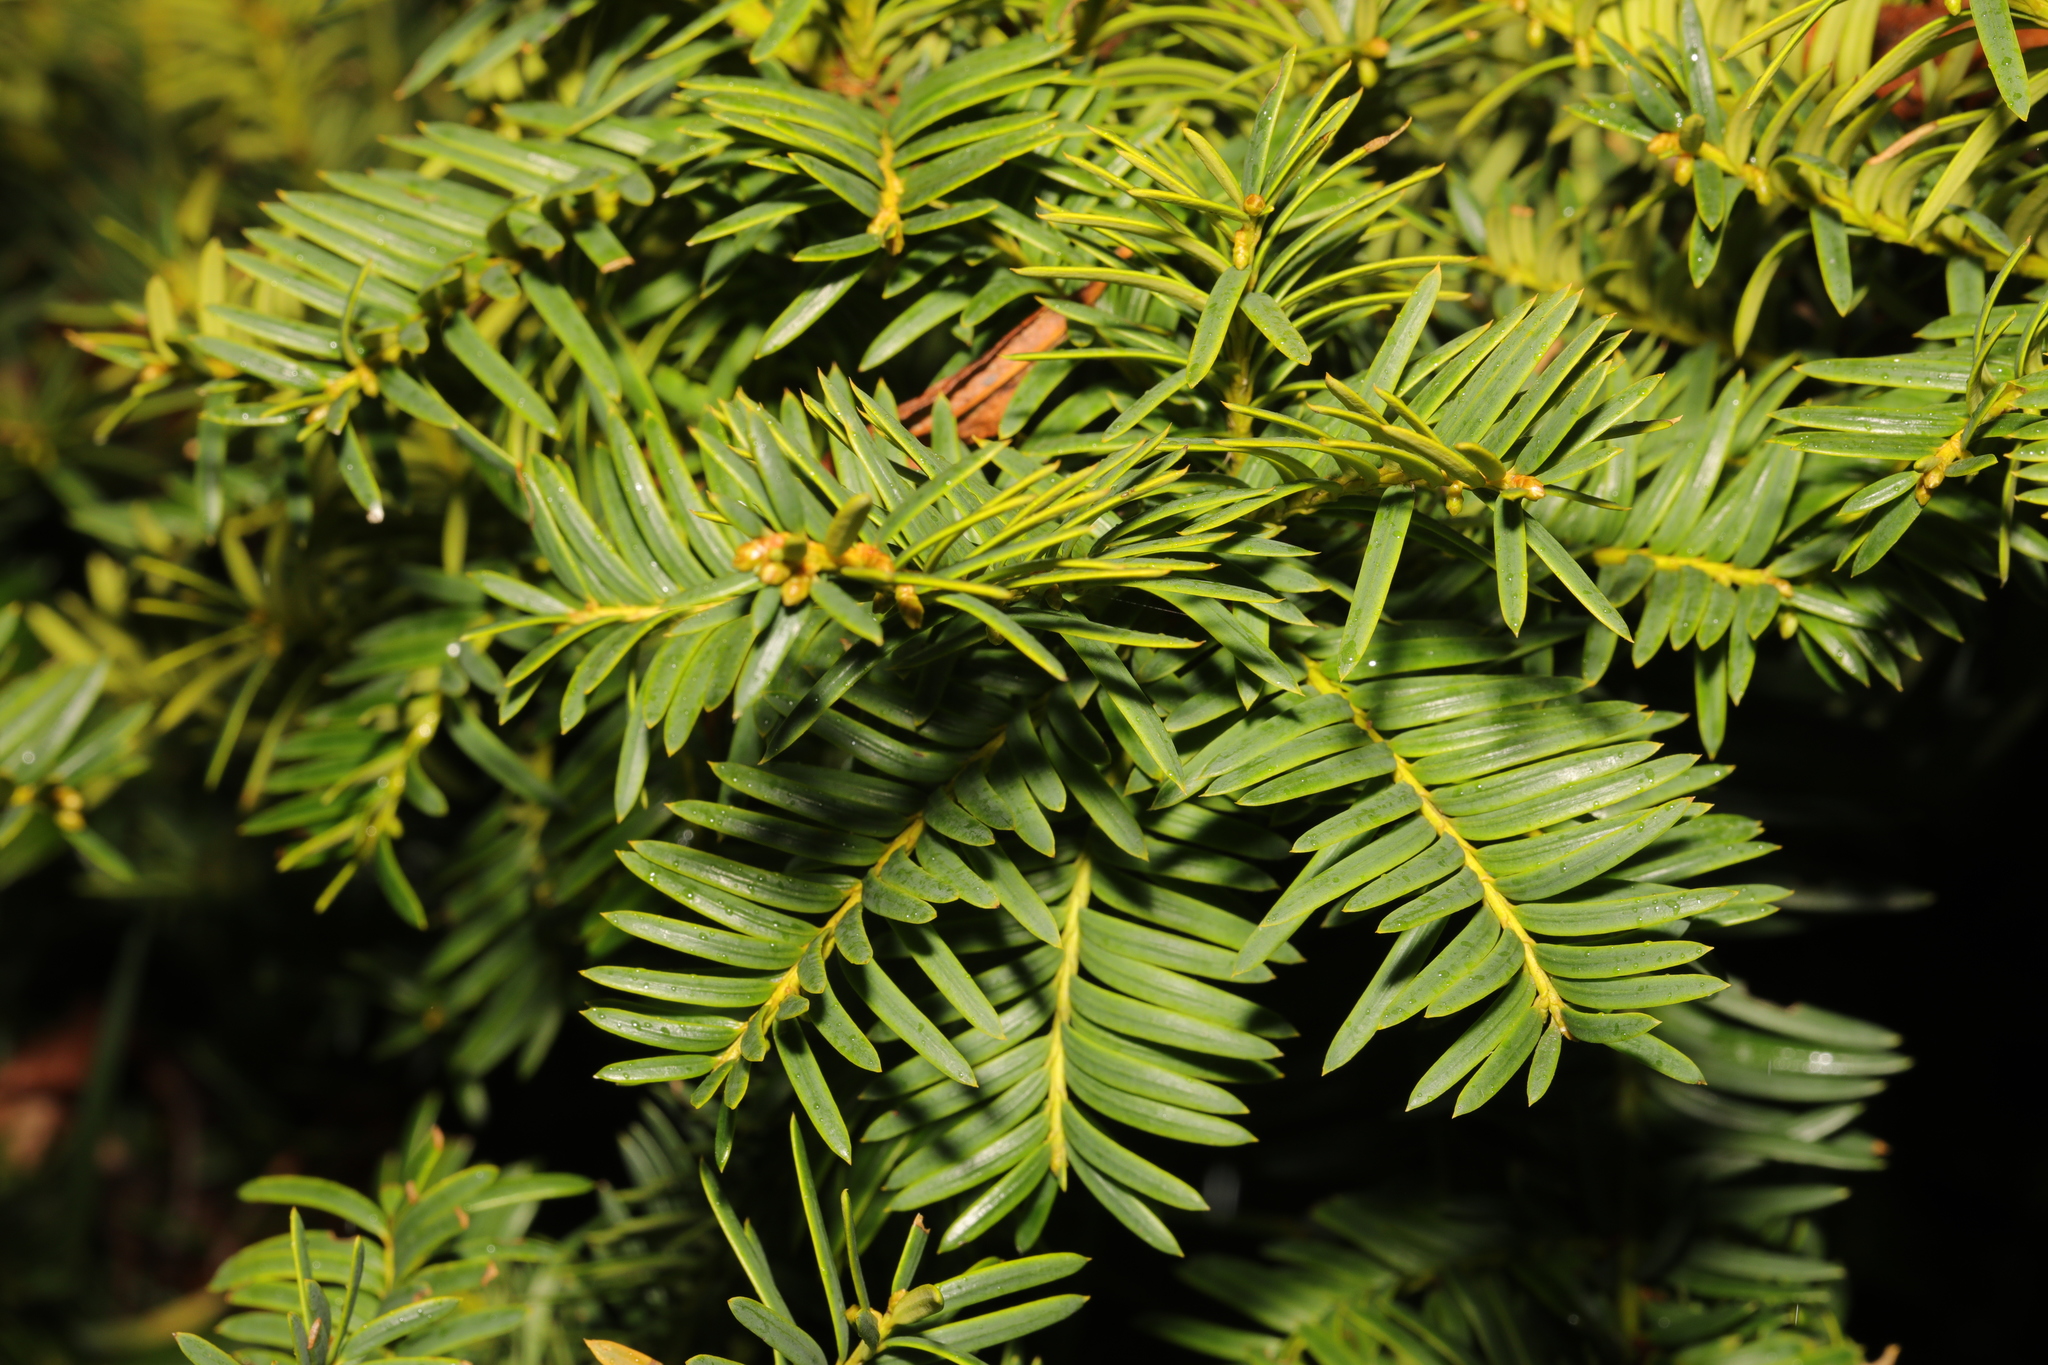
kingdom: Plantae
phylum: Tracheophyta
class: Pinopsida
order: Pinales
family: Taxaceae
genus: Taxus
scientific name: Taxus baccata
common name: Yew
